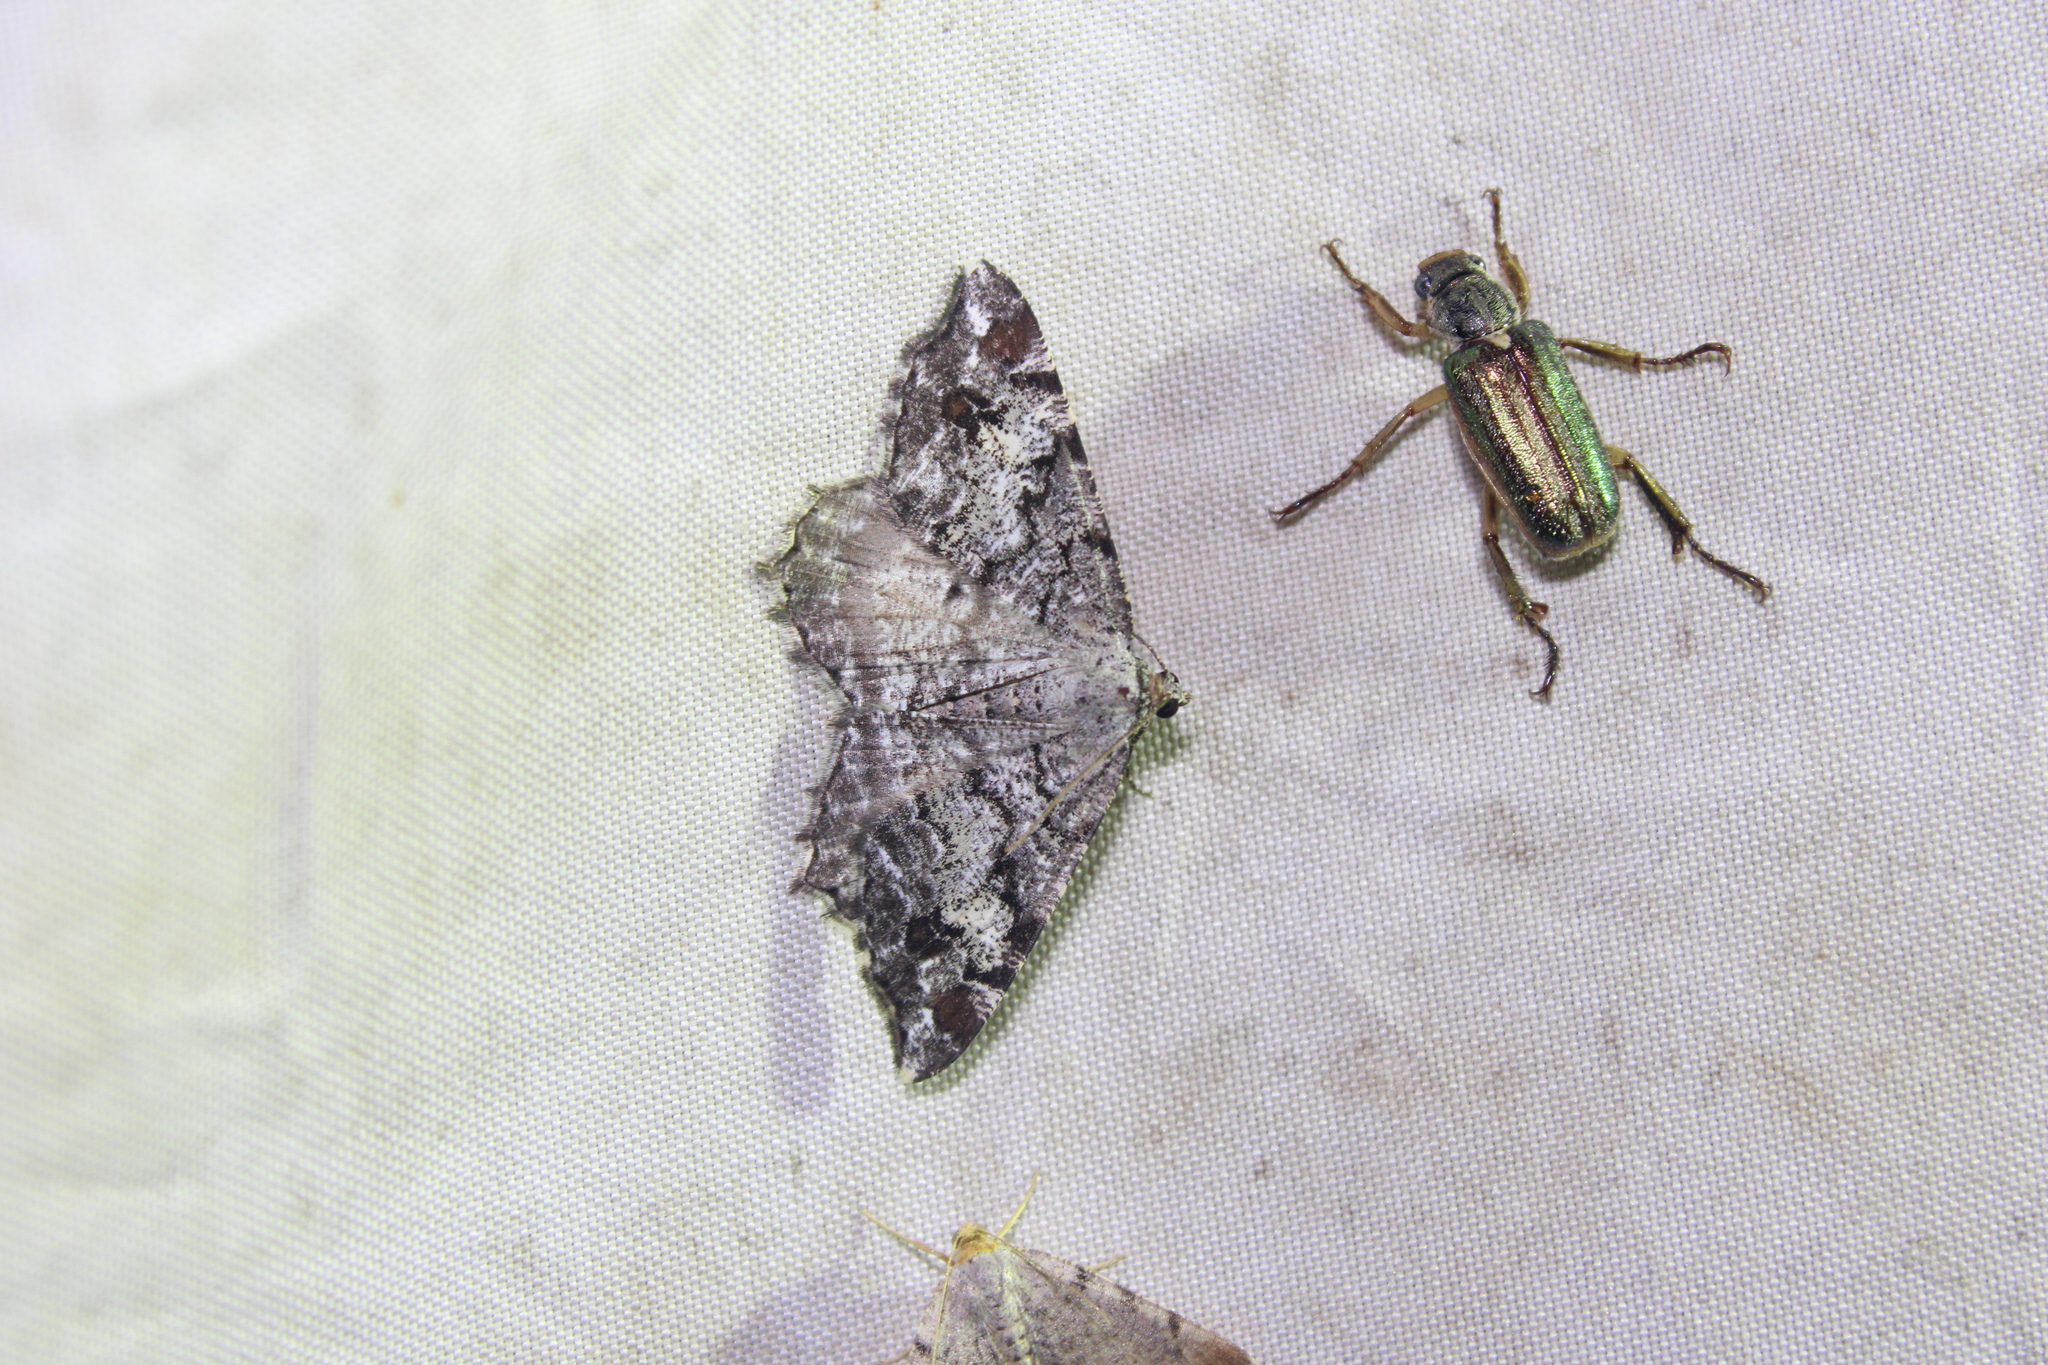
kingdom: Animalia
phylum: Arthropoda
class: Insecta
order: Lepidoptera
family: Geometridae
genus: Macaria
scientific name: Macaria granitata
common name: Granite moth
